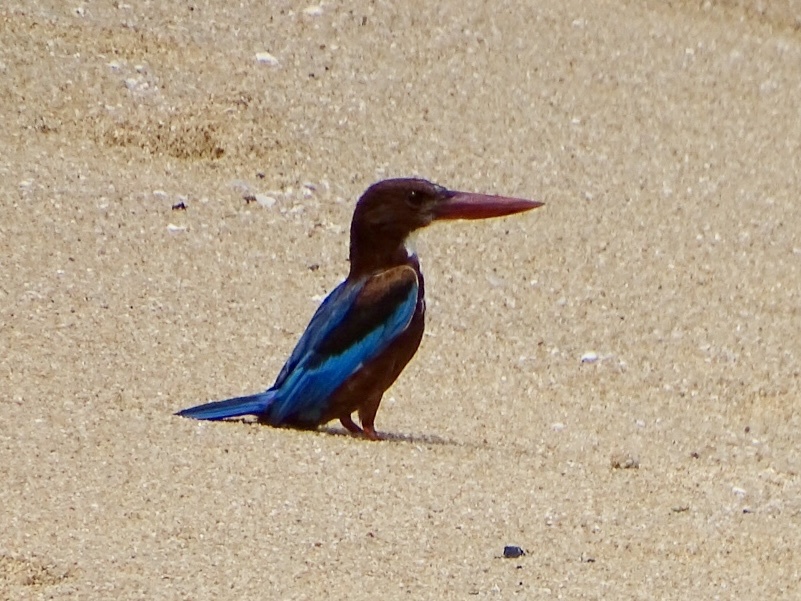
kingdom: Animalia
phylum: Chordata
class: Aves
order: Coraciiformes
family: Alcedinidae
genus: Halcyon
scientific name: Halcyon smyrnensis
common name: White-throated kingfisher
